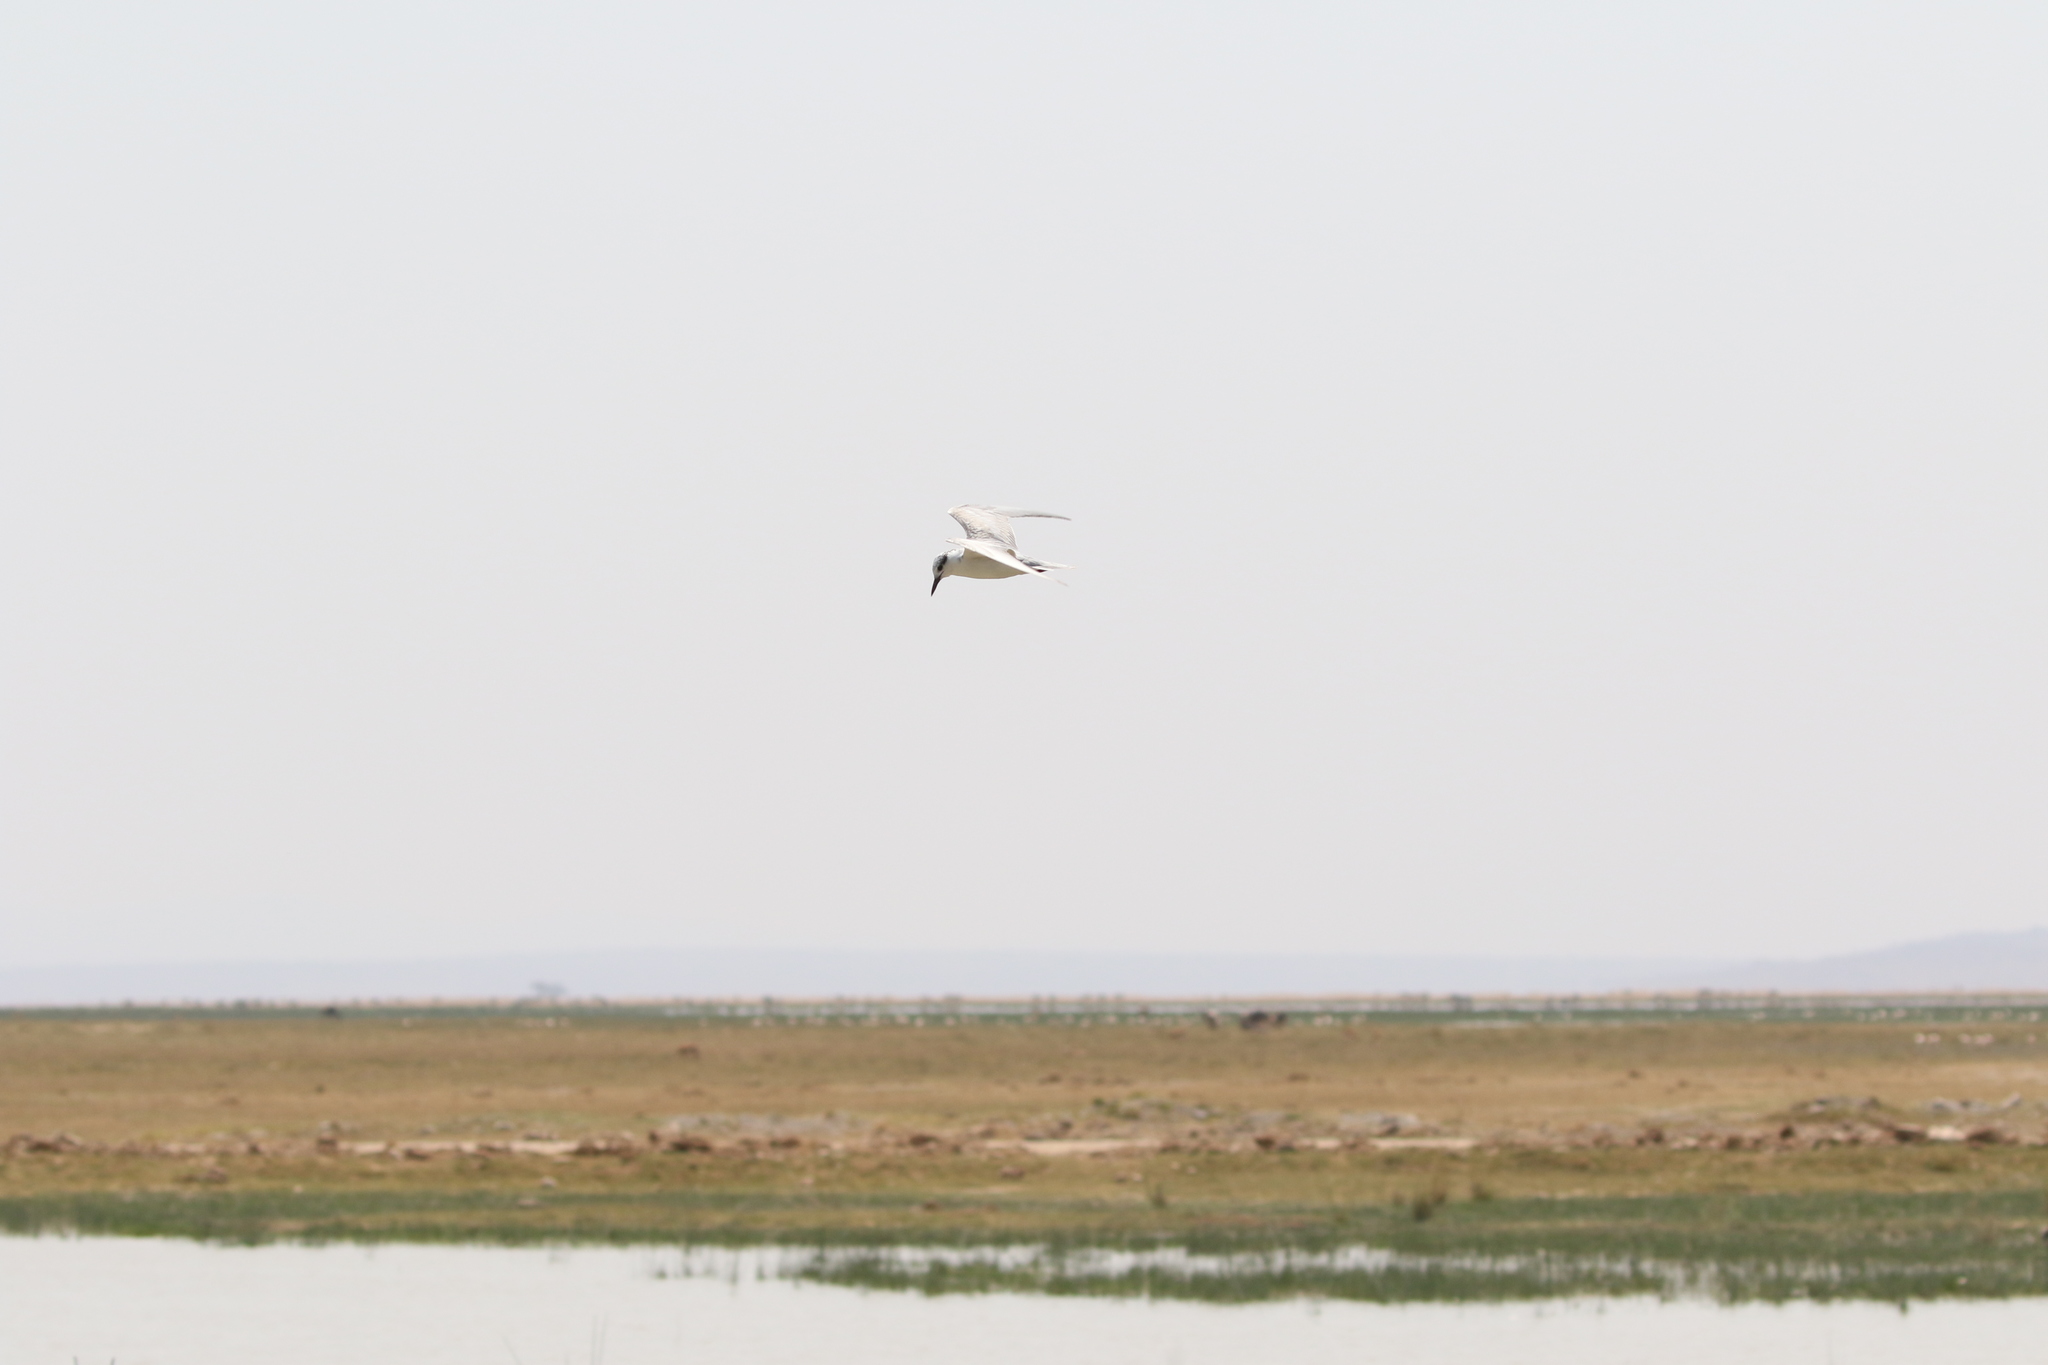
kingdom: Animalia
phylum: Chordata
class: Aves
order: Charadriiformes
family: Laridae
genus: Chlidonias
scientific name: Chlidonias hybrida
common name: Whiskered tern
